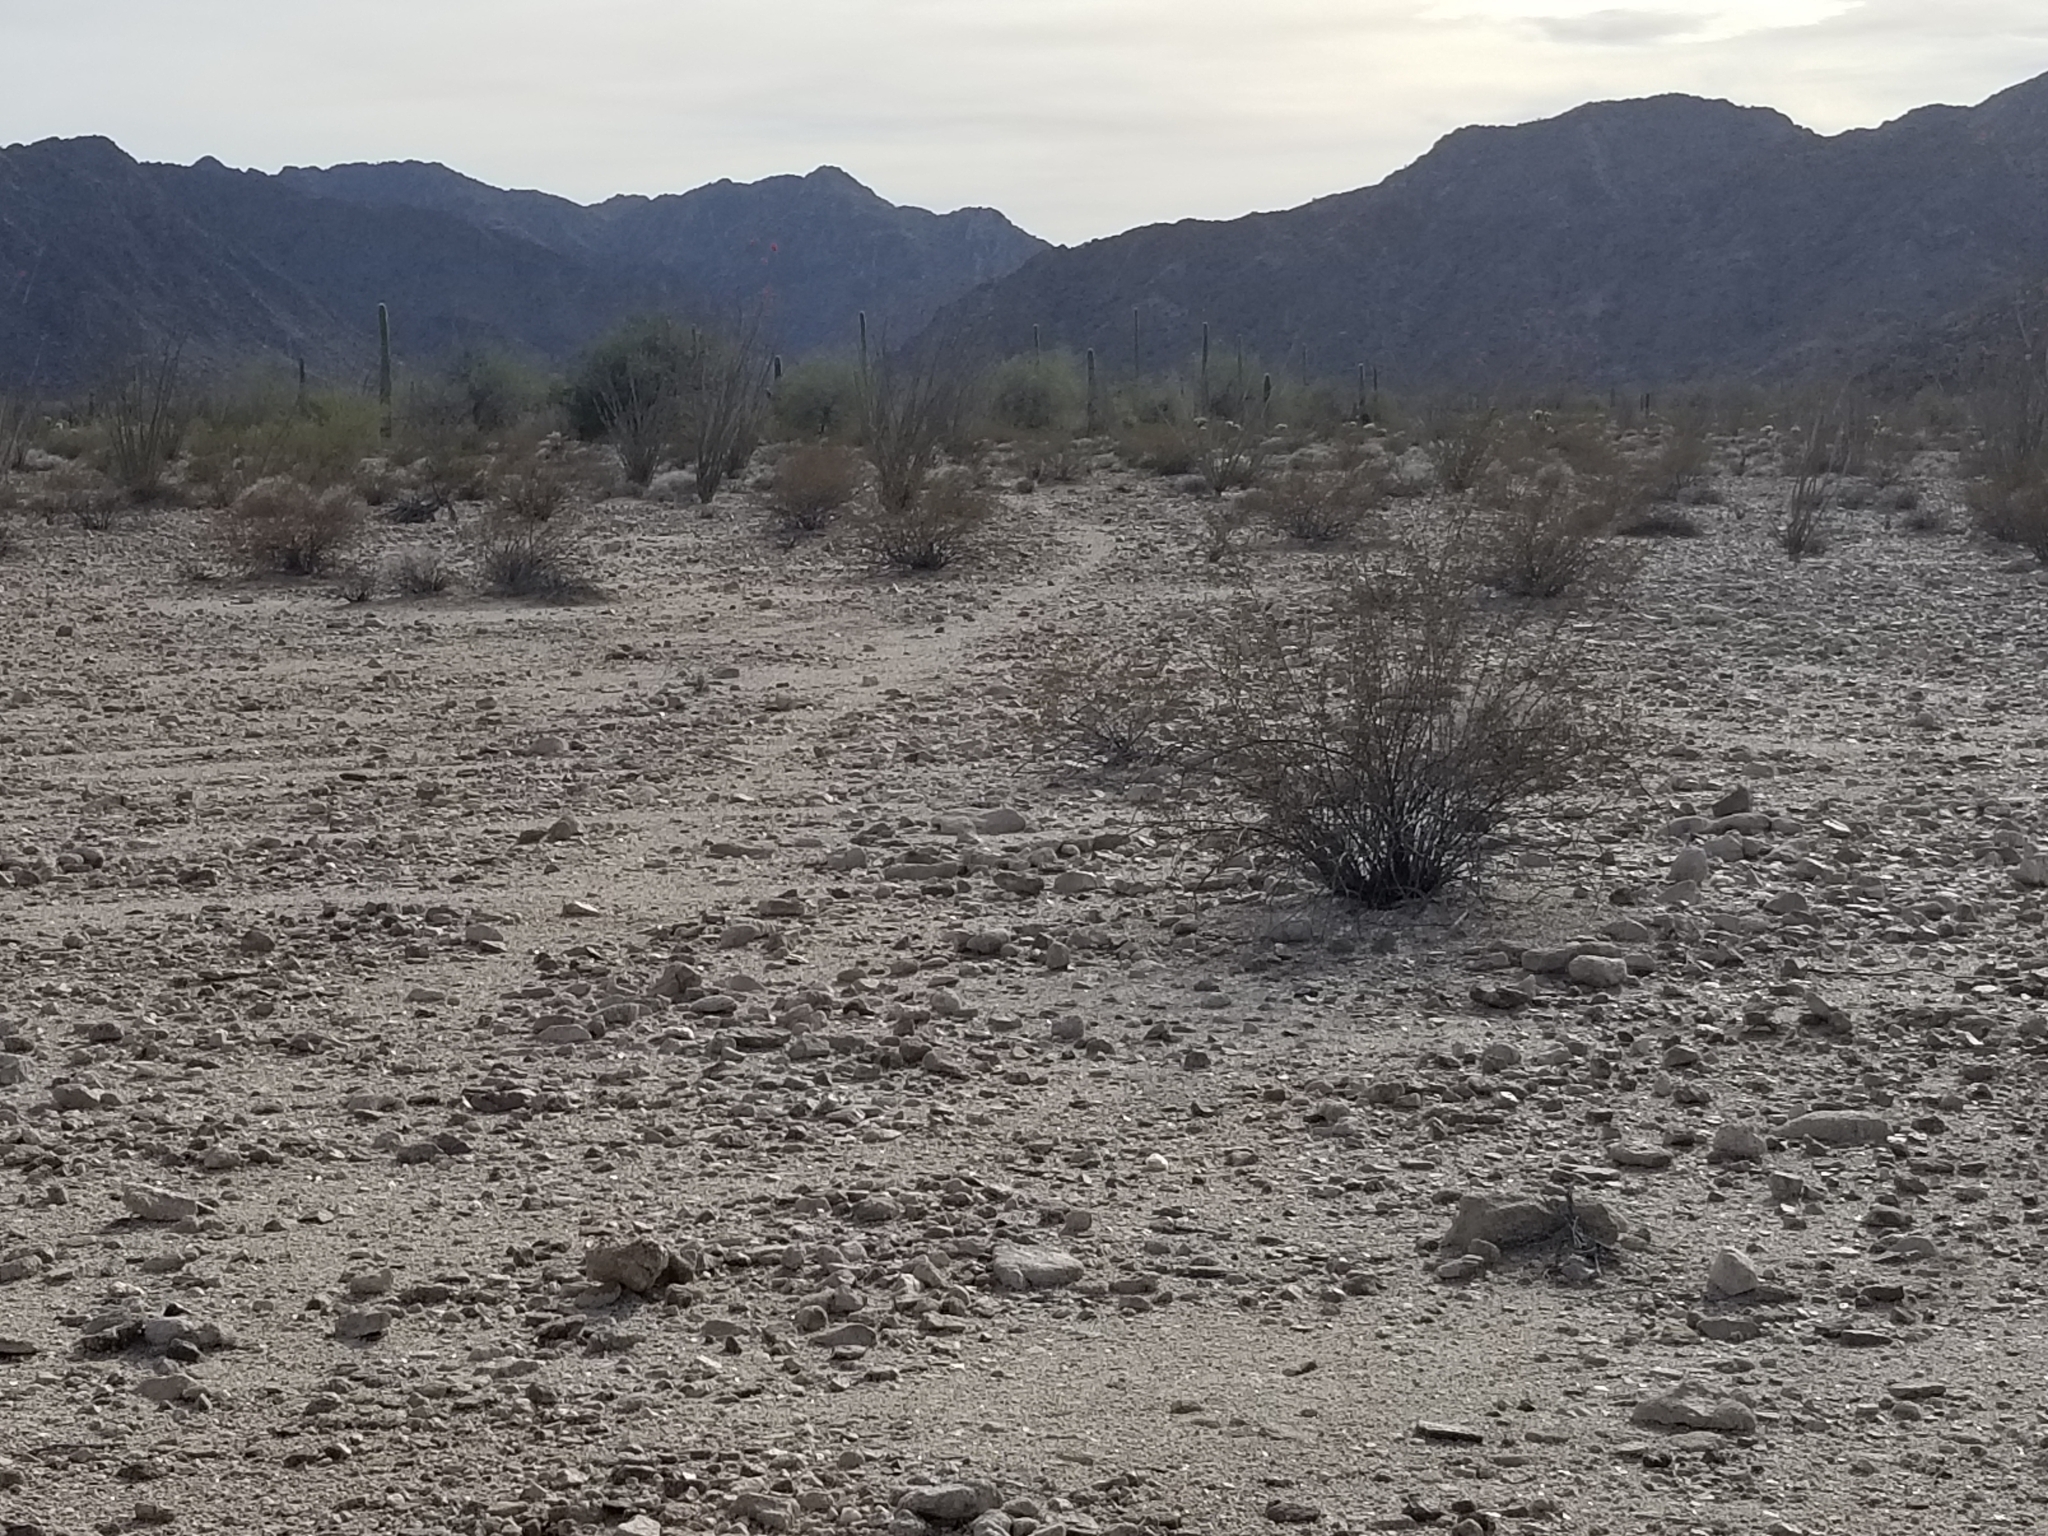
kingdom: Plantae
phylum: Tracheophyta
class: Magnoliopsida
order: Zygophyllales
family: Zygophyllaceae
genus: Larrea
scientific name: Larrea tridentata
